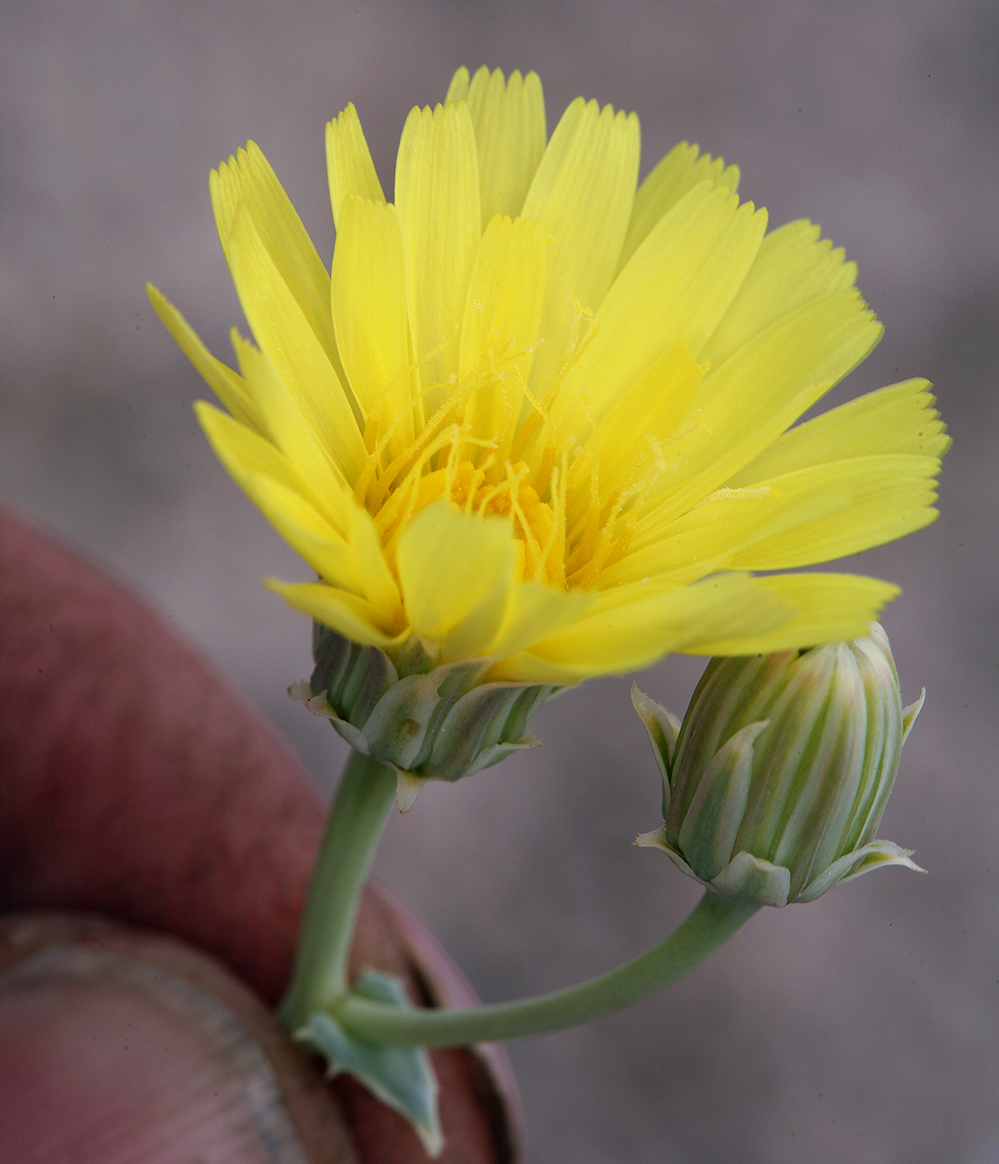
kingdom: Plantae
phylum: Tracheophyta
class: Magnoliopsida
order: Asterales
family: Asteraceae
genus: Malacothrix
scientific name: Malacothrix sonchoides
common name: Sow-thistle desert-dandelion
